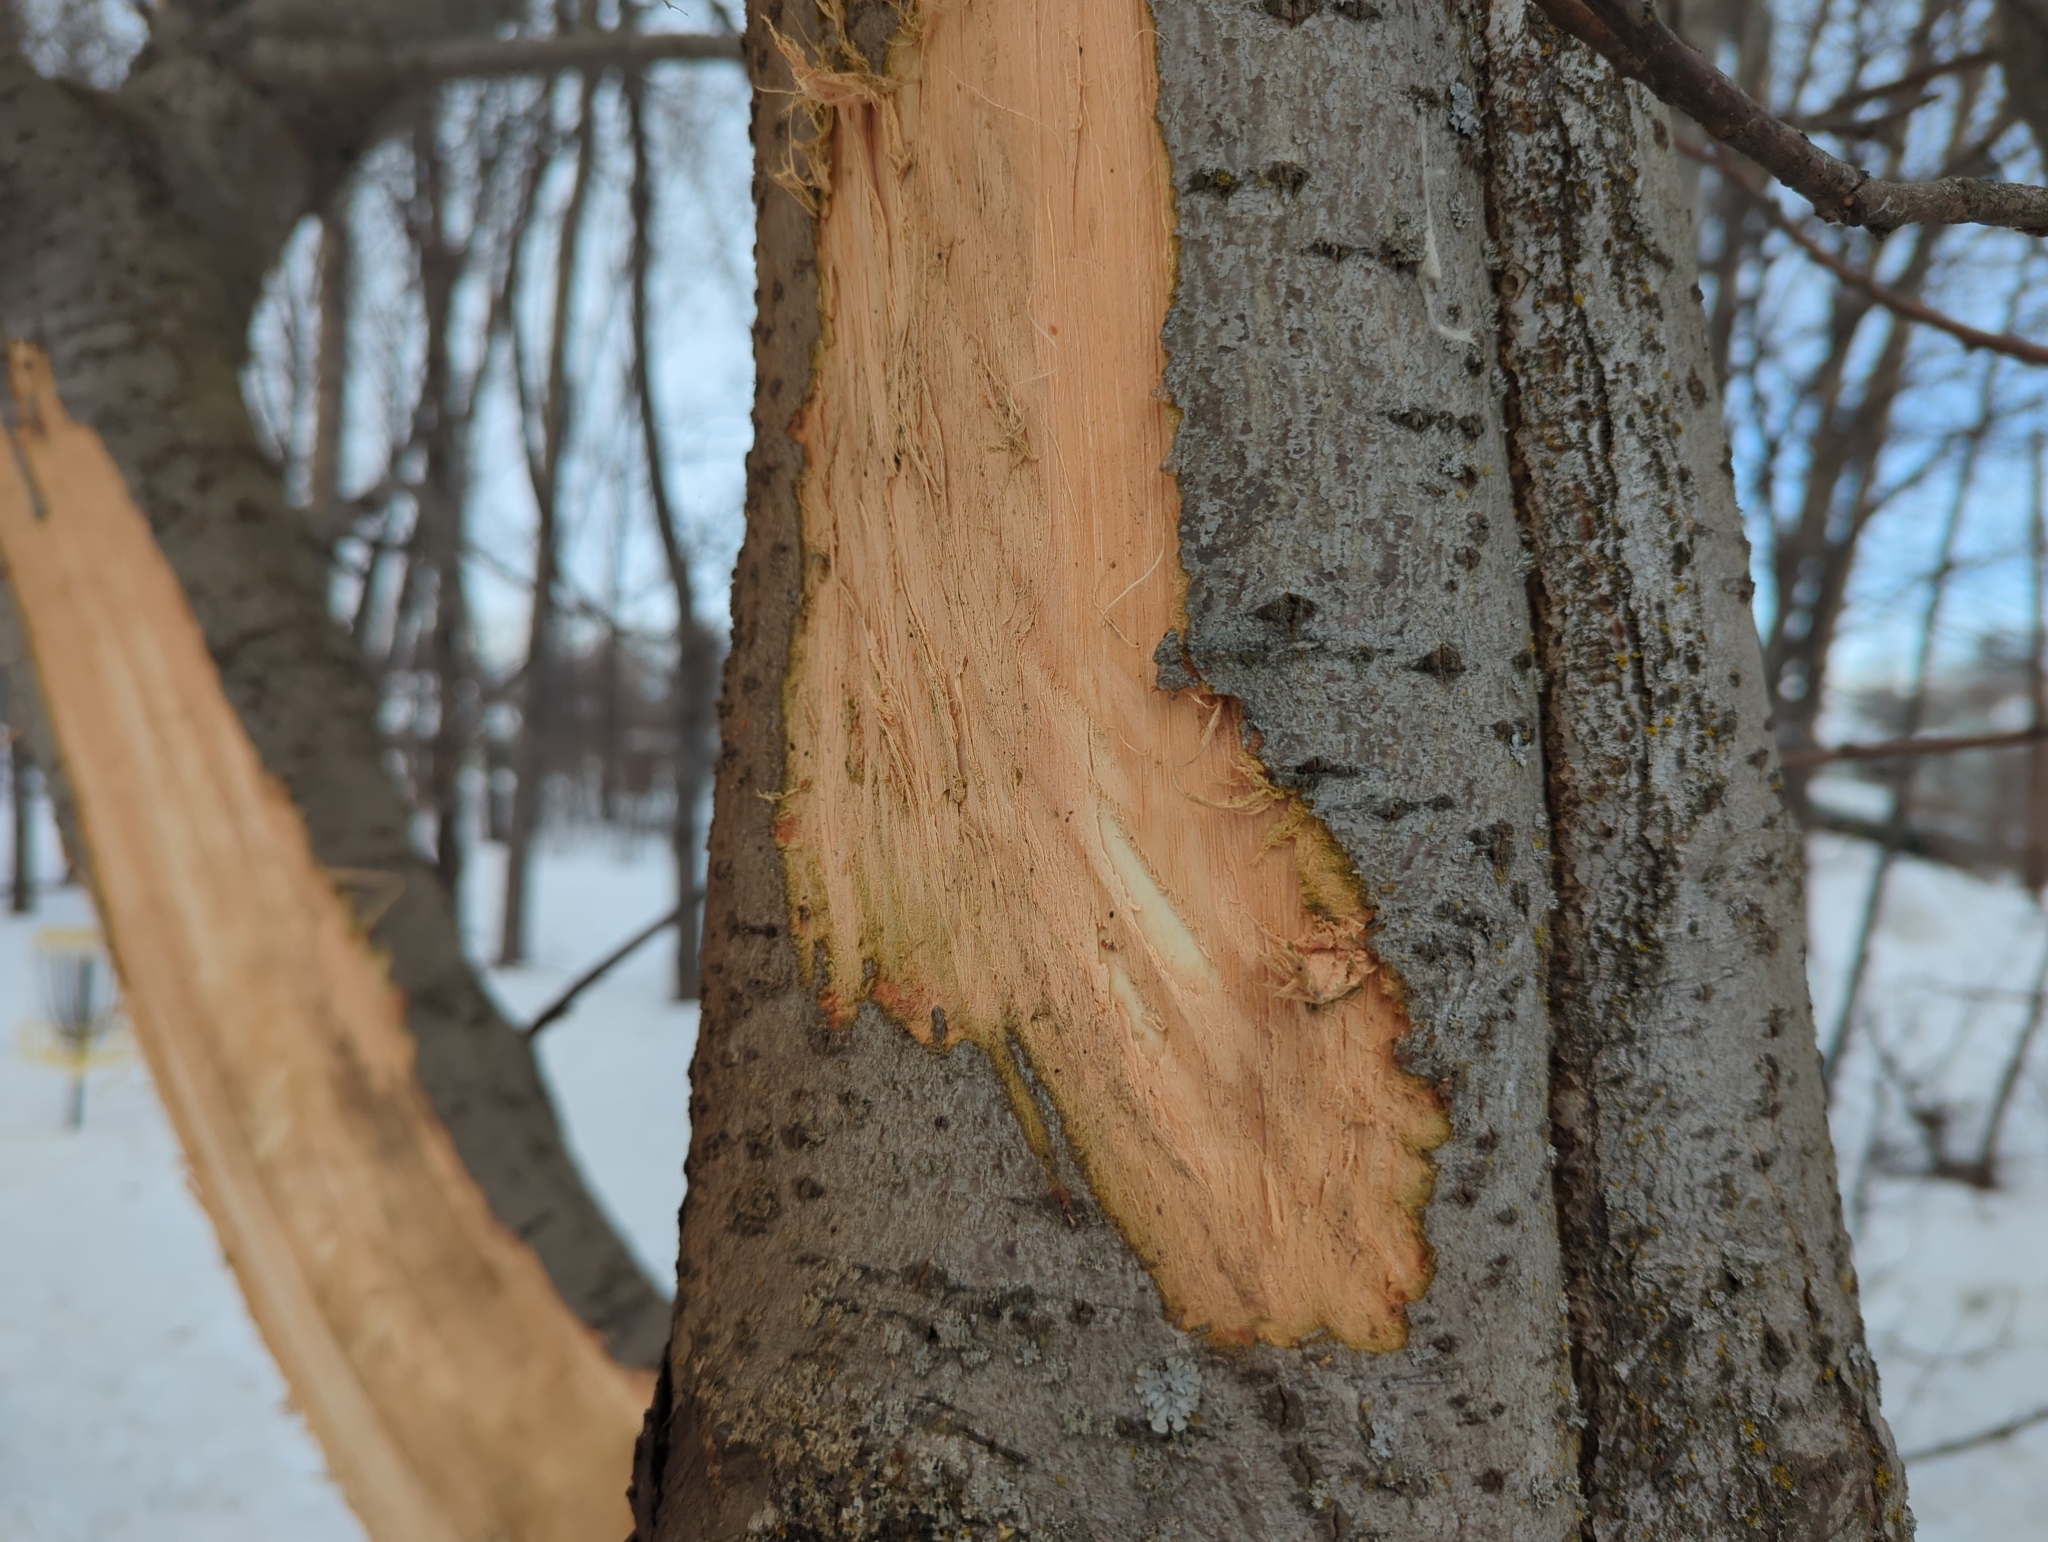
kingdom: Animalia
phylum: Chordata
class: Mammalia
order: Artiodactyla
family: Cervidae
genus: Alces
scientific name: Alces alces
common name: Moose
